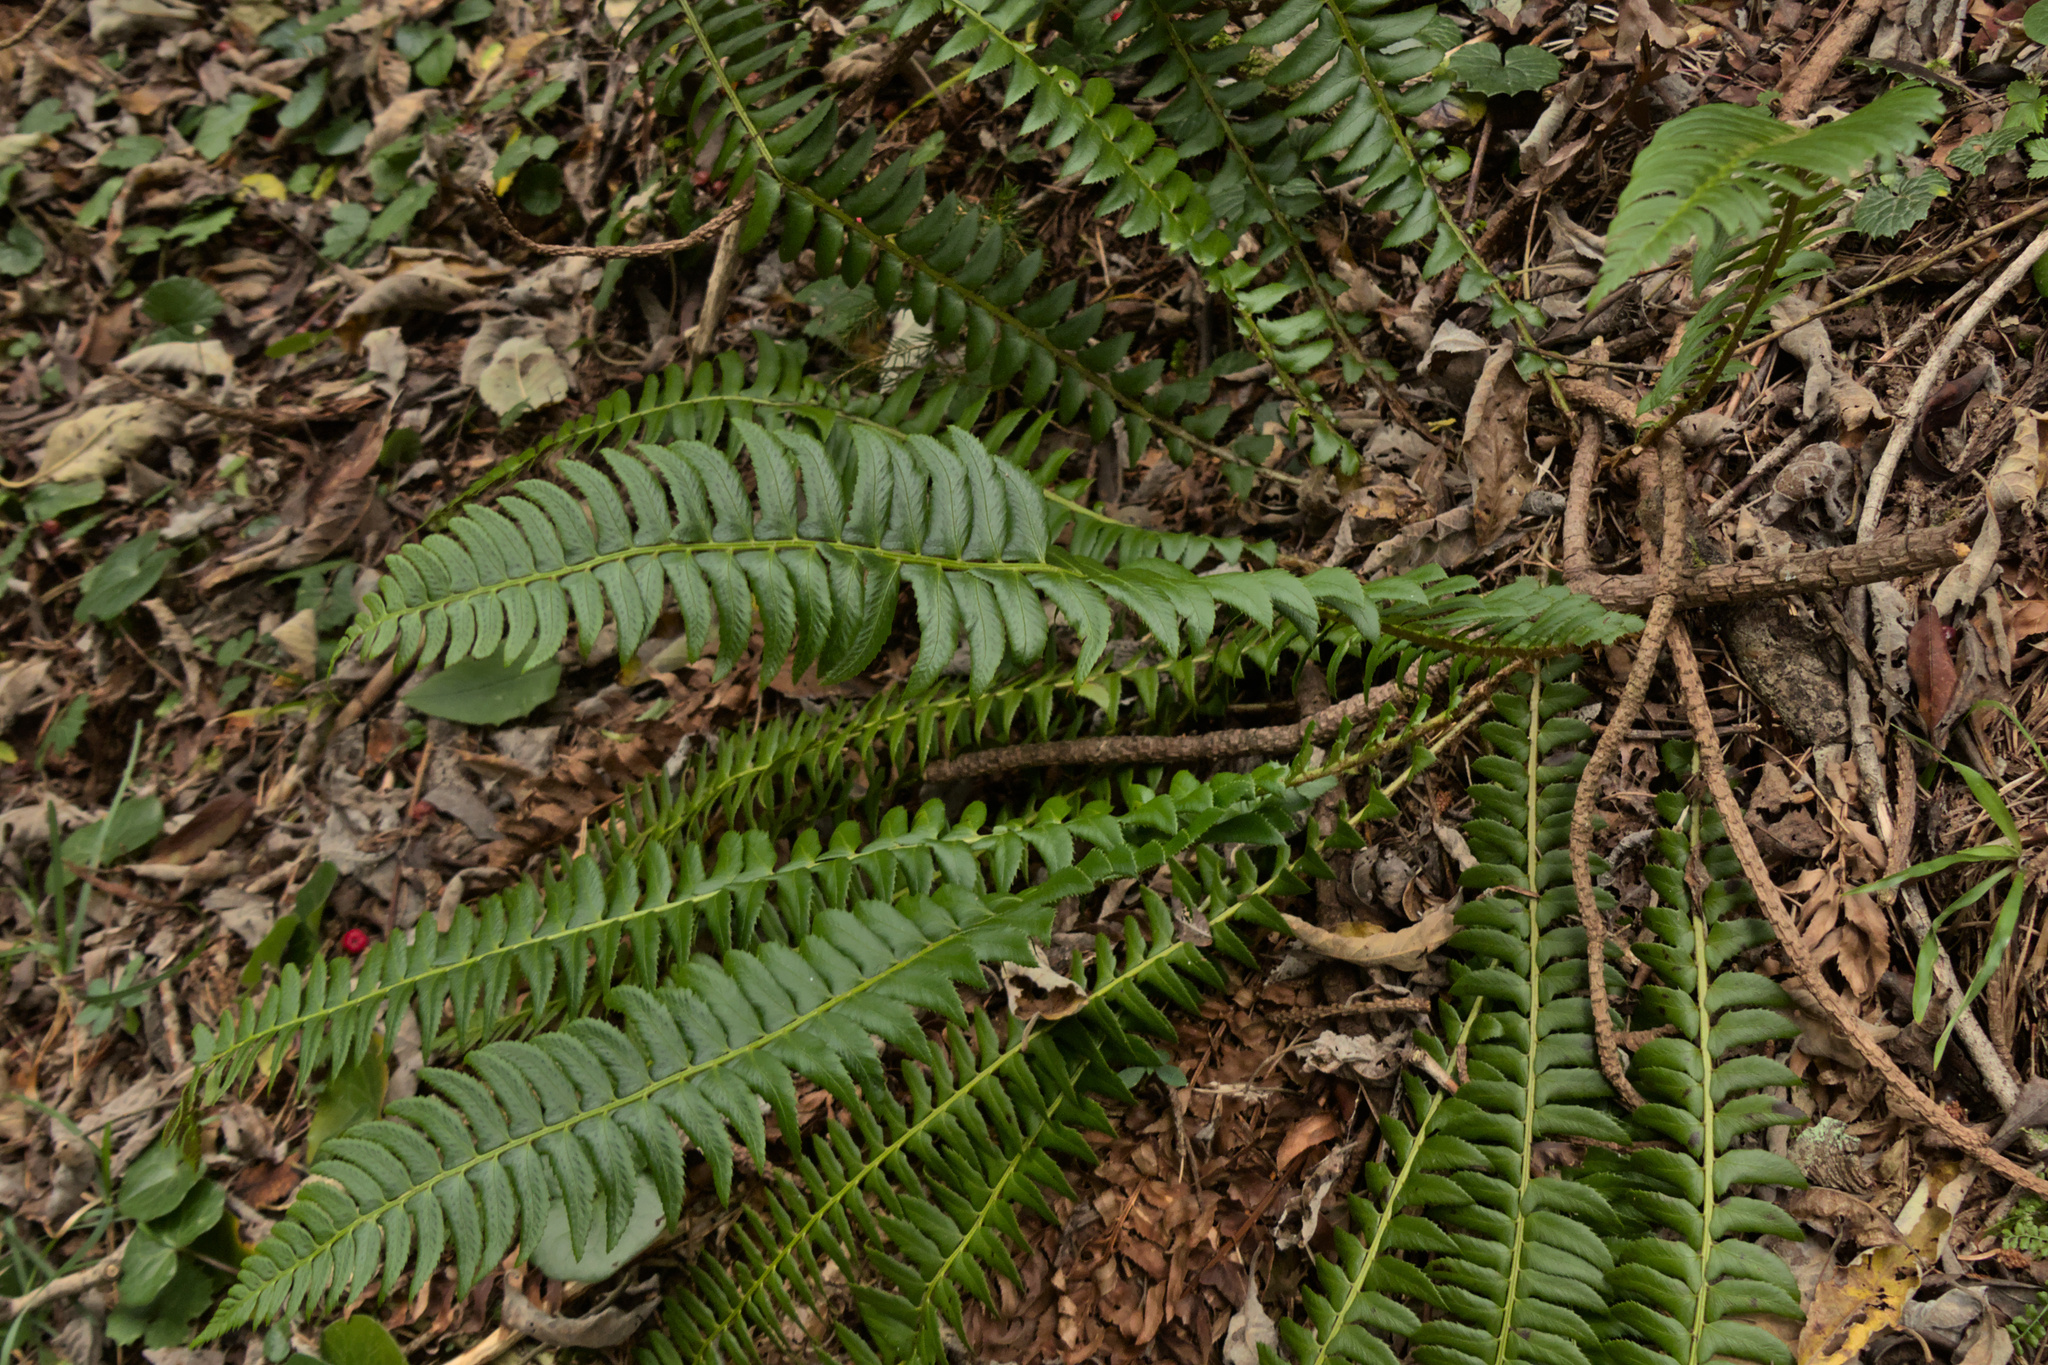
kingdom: Plantae
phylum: Tracheophyta
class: Polypodiopsida
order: Polypodiales
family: Dryopteridaceae
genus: Polystichum
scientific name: Polystichum lonchitis
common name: Holly fern
